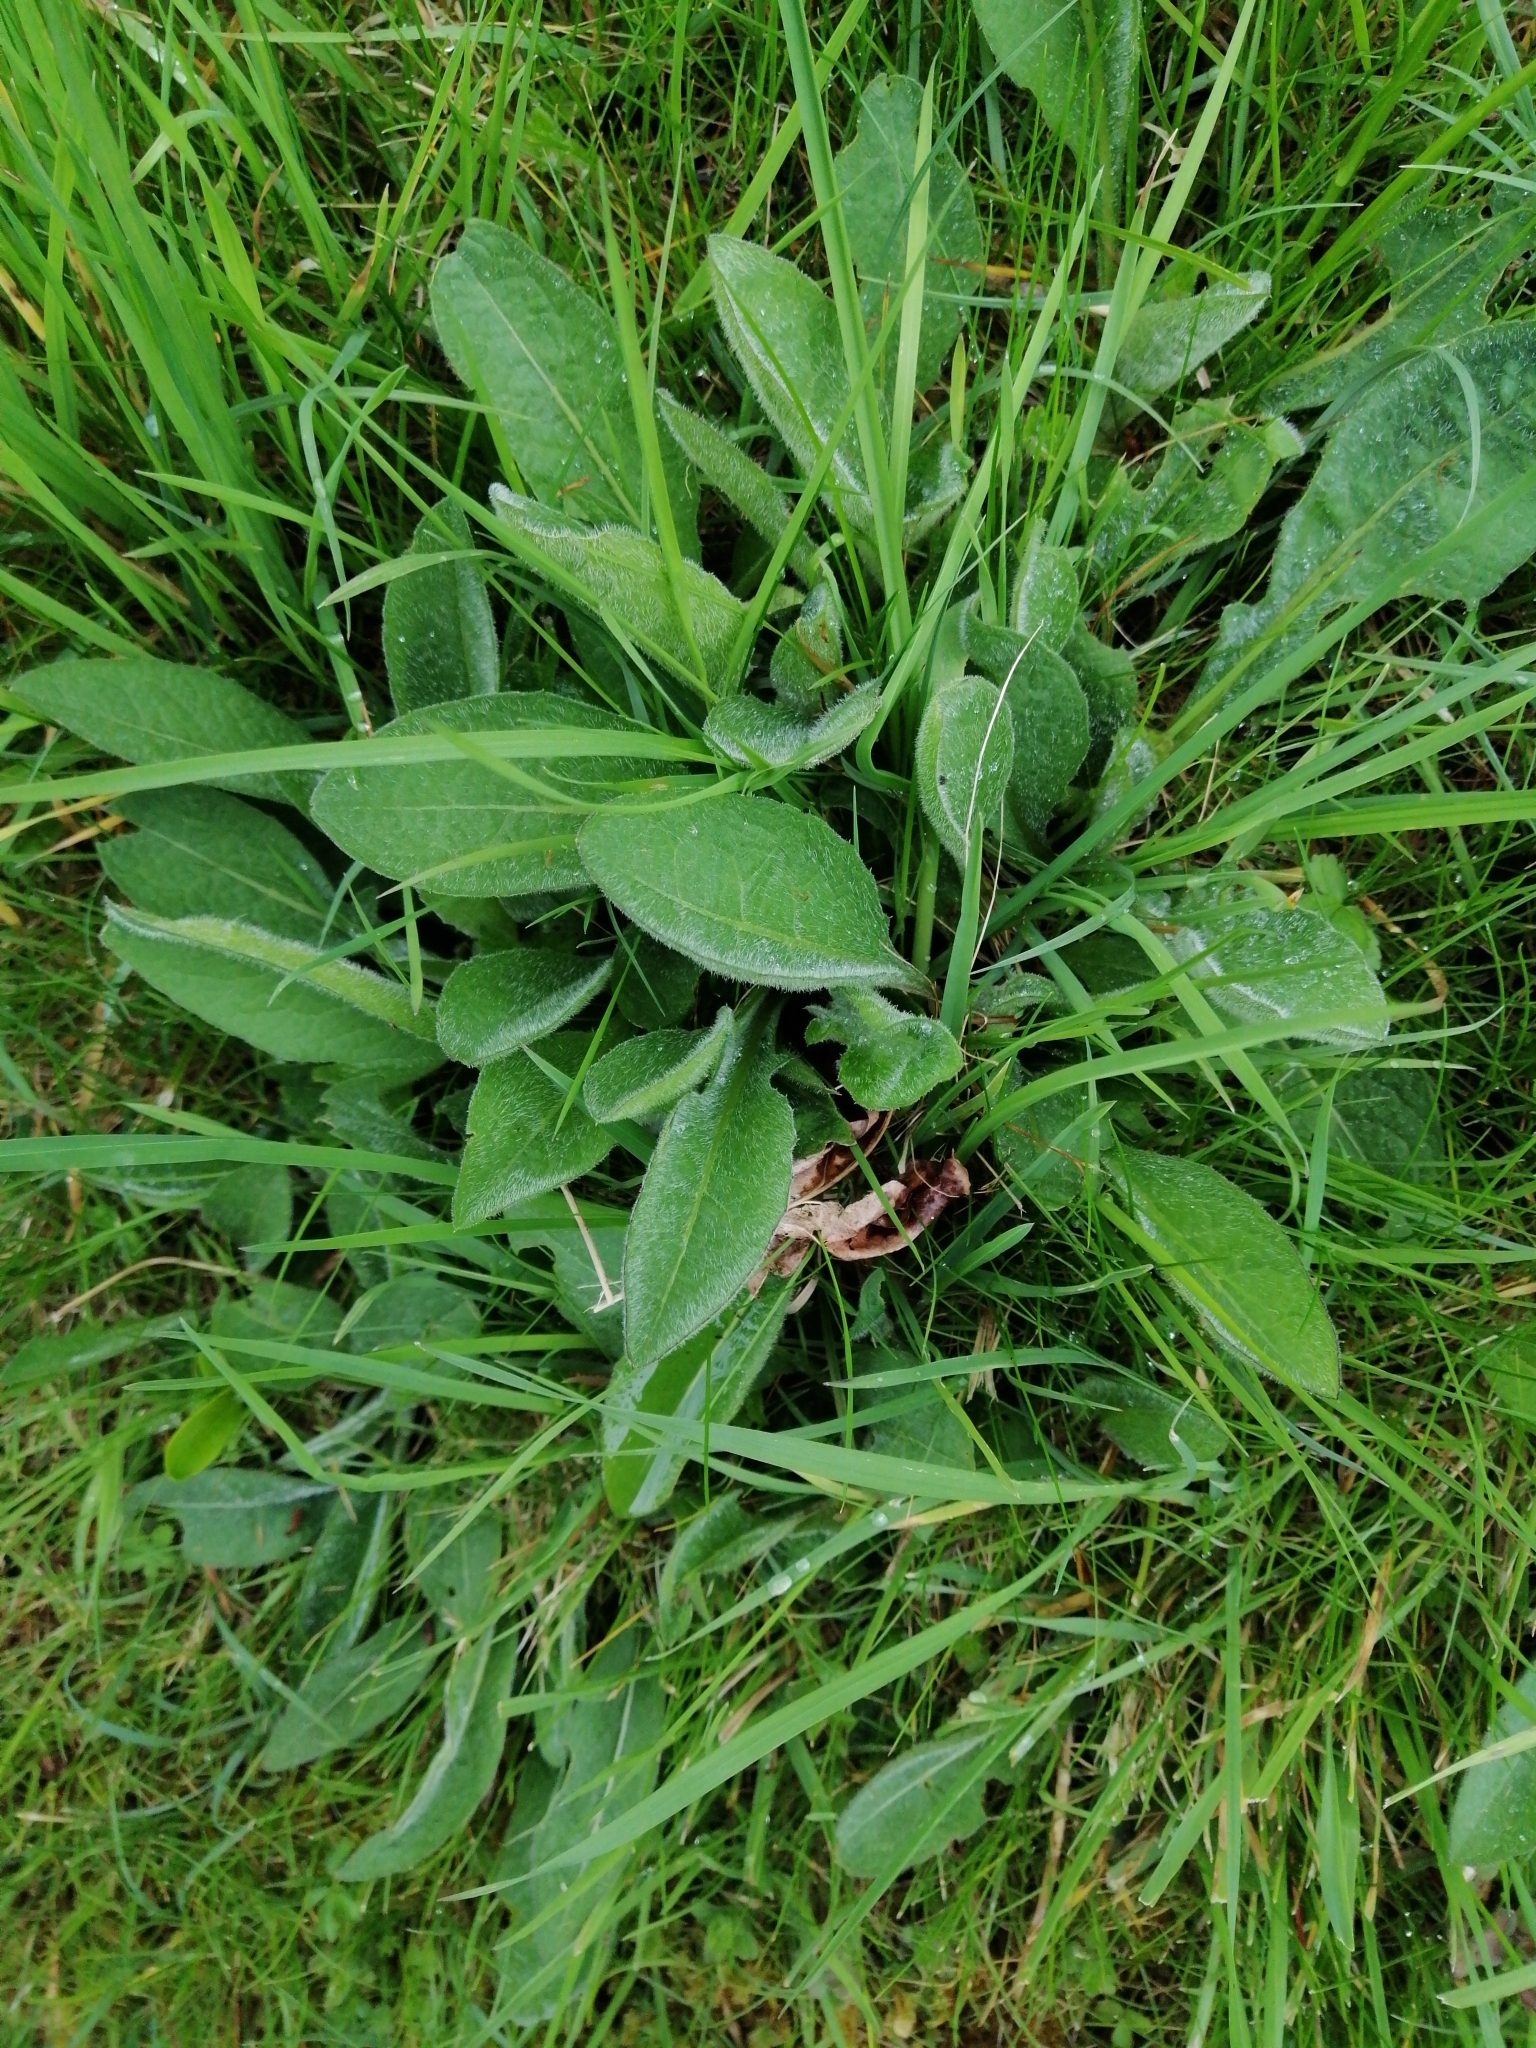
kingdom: Plantae
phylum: Tracheophyta
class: Magnoliopsida
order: Asterales
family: Asteraceae
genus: Centaurea
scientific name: Centaurea nigra
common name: Lesser knapweed
